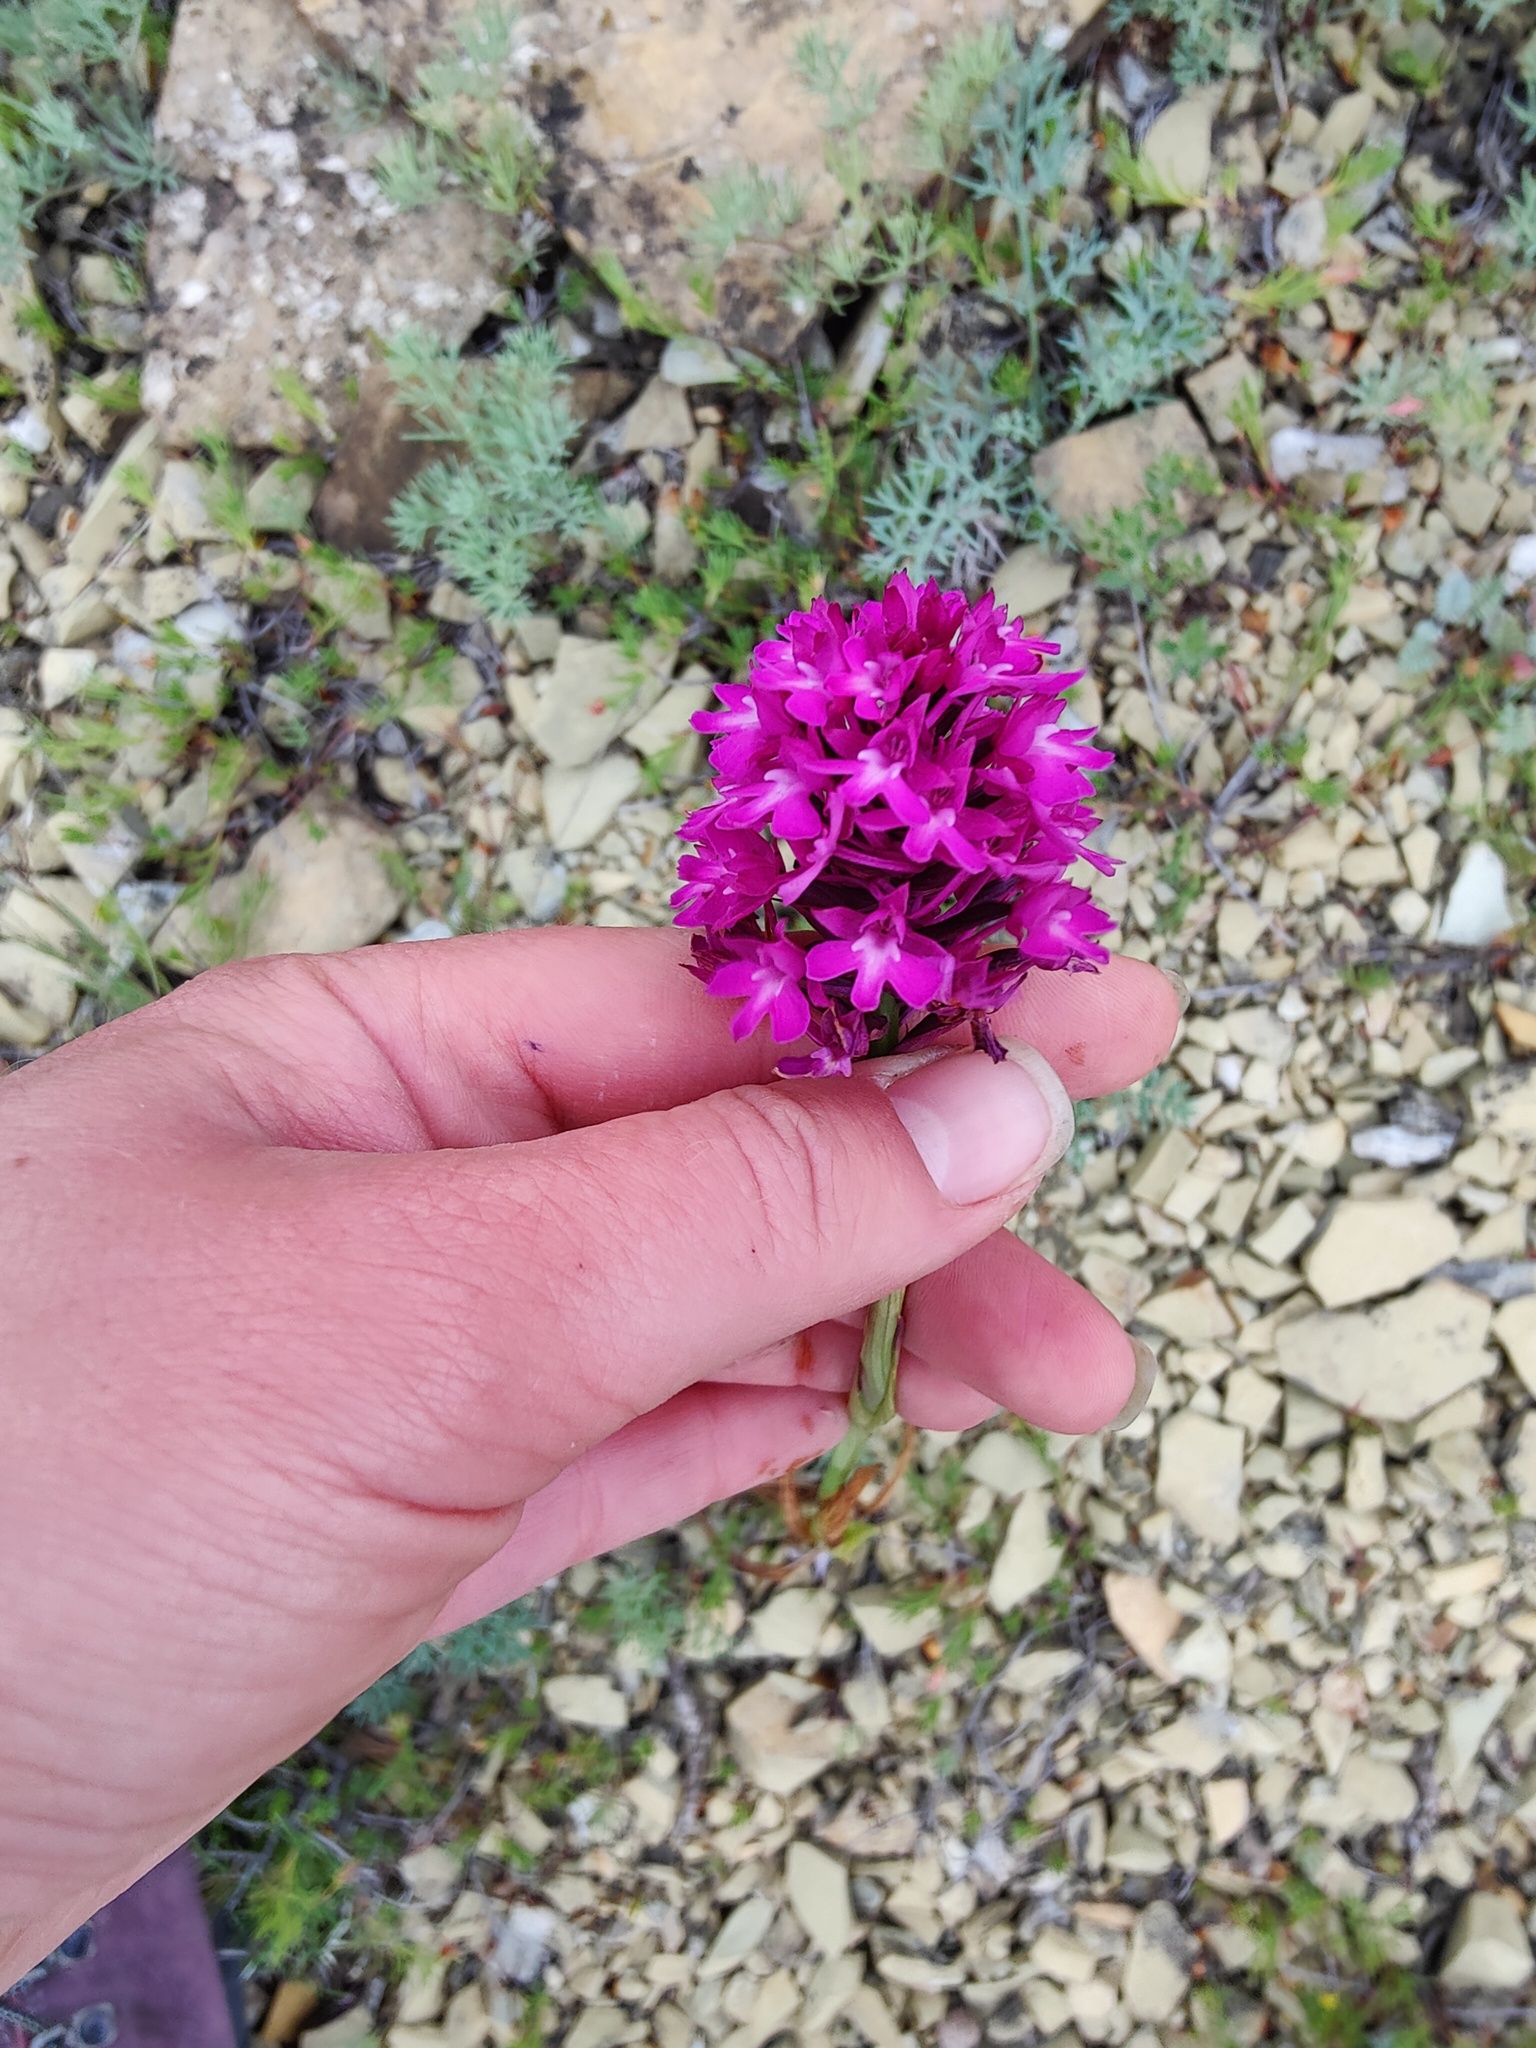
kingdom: Plantae
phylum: Tracheophyta
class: Liliopsida
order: Asparagales
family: Orchidaceae
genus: Anacamptis
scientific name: Anacamptis pyramidalis
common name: Pyramidal orchid
